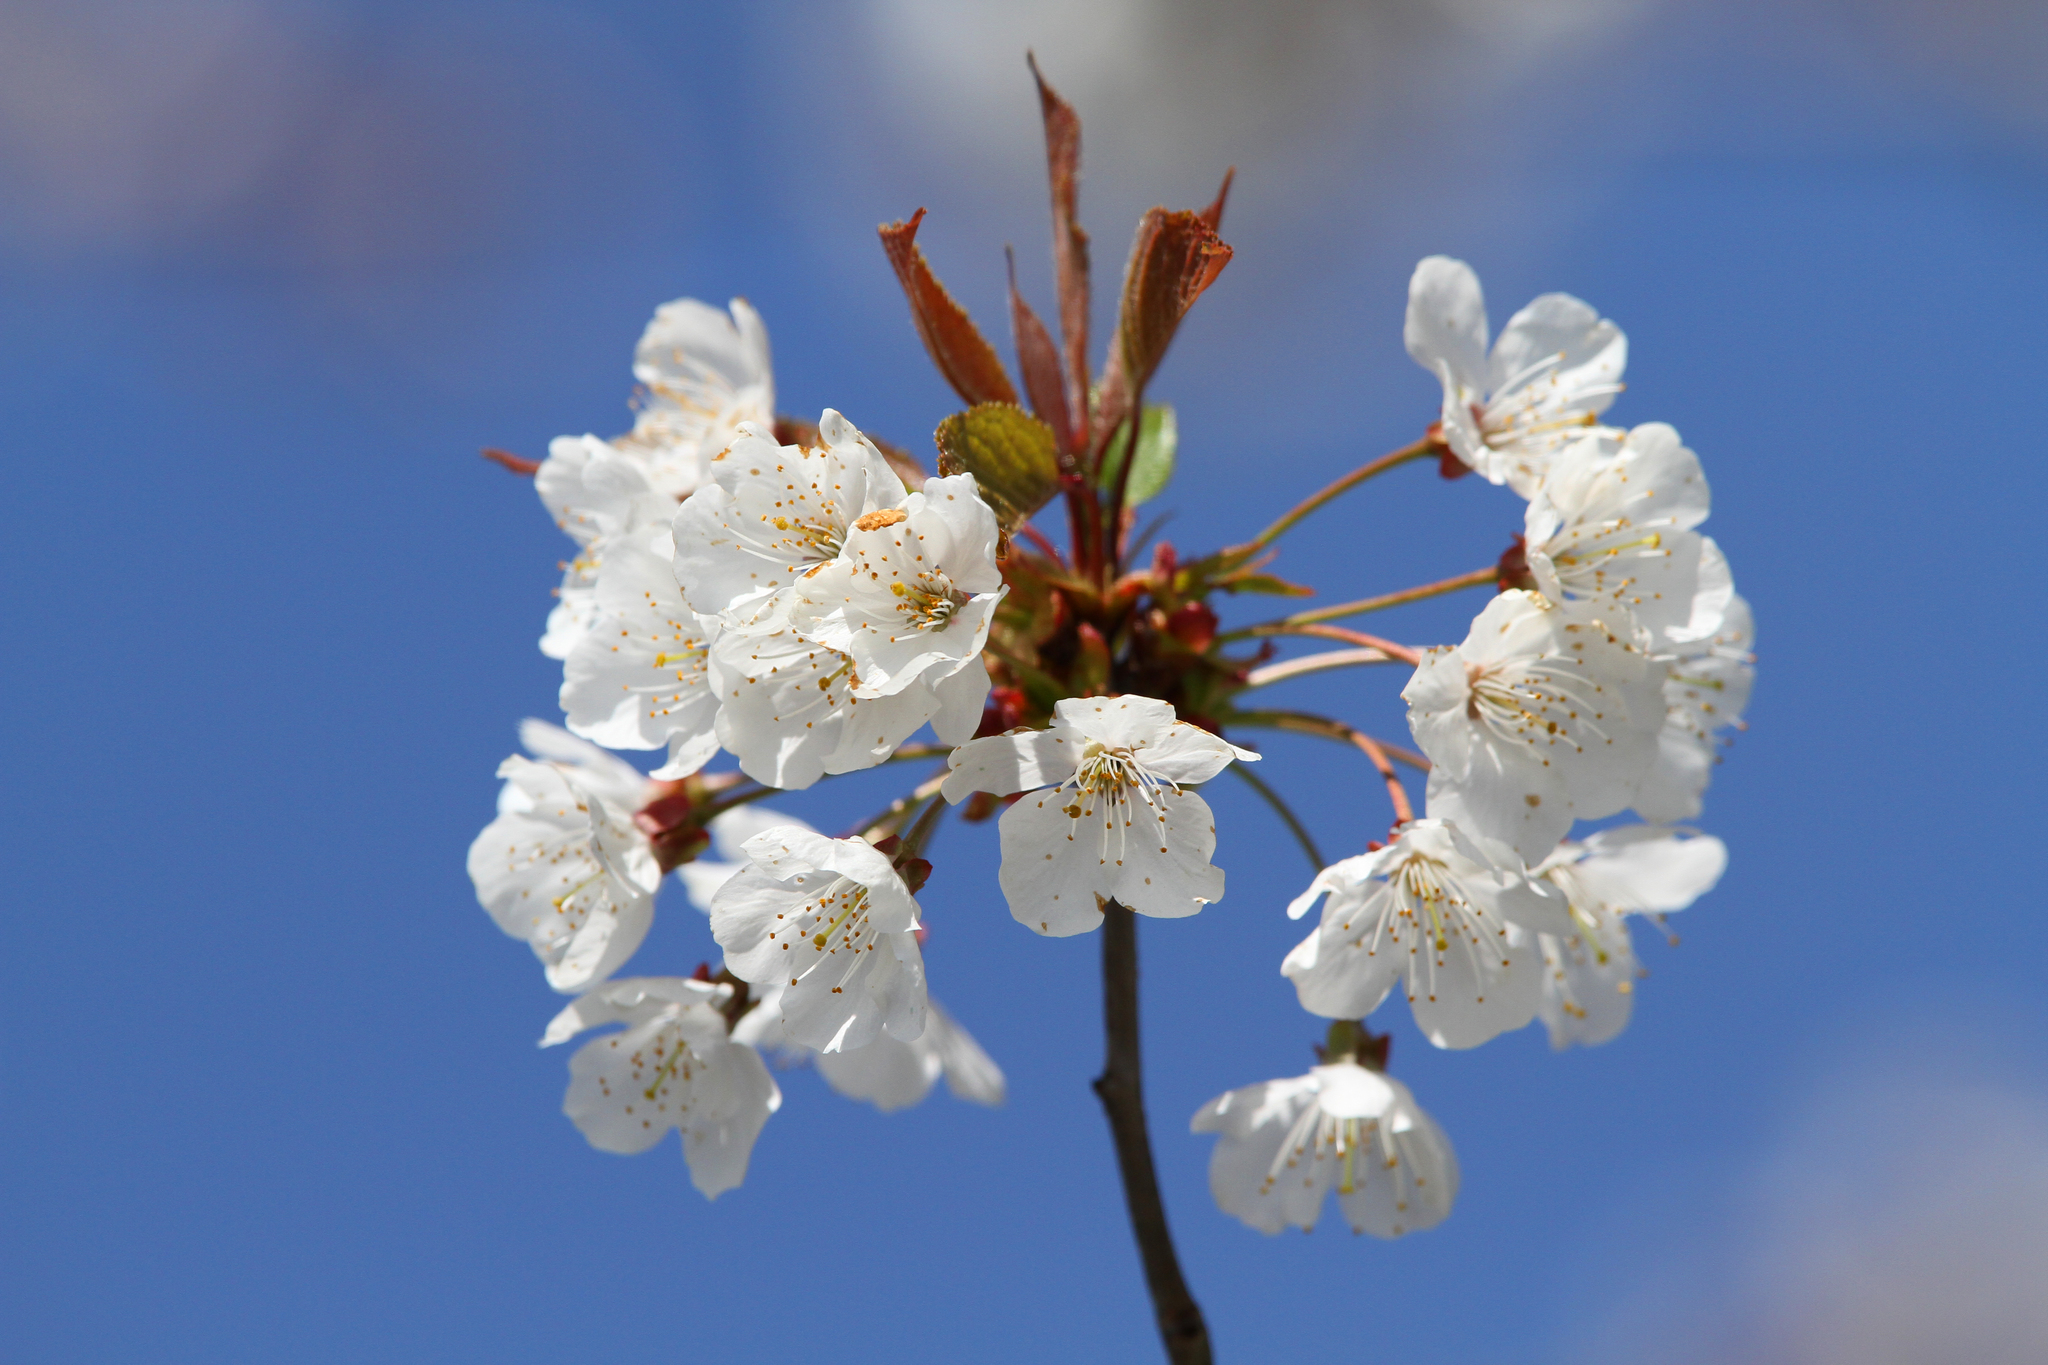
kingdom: Plantae
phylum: Tracheophyta
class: Magnoliopsida
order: Rosales
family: Rosaceae
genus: Prunus
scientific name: Prunus avium
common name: Sweet cherry
